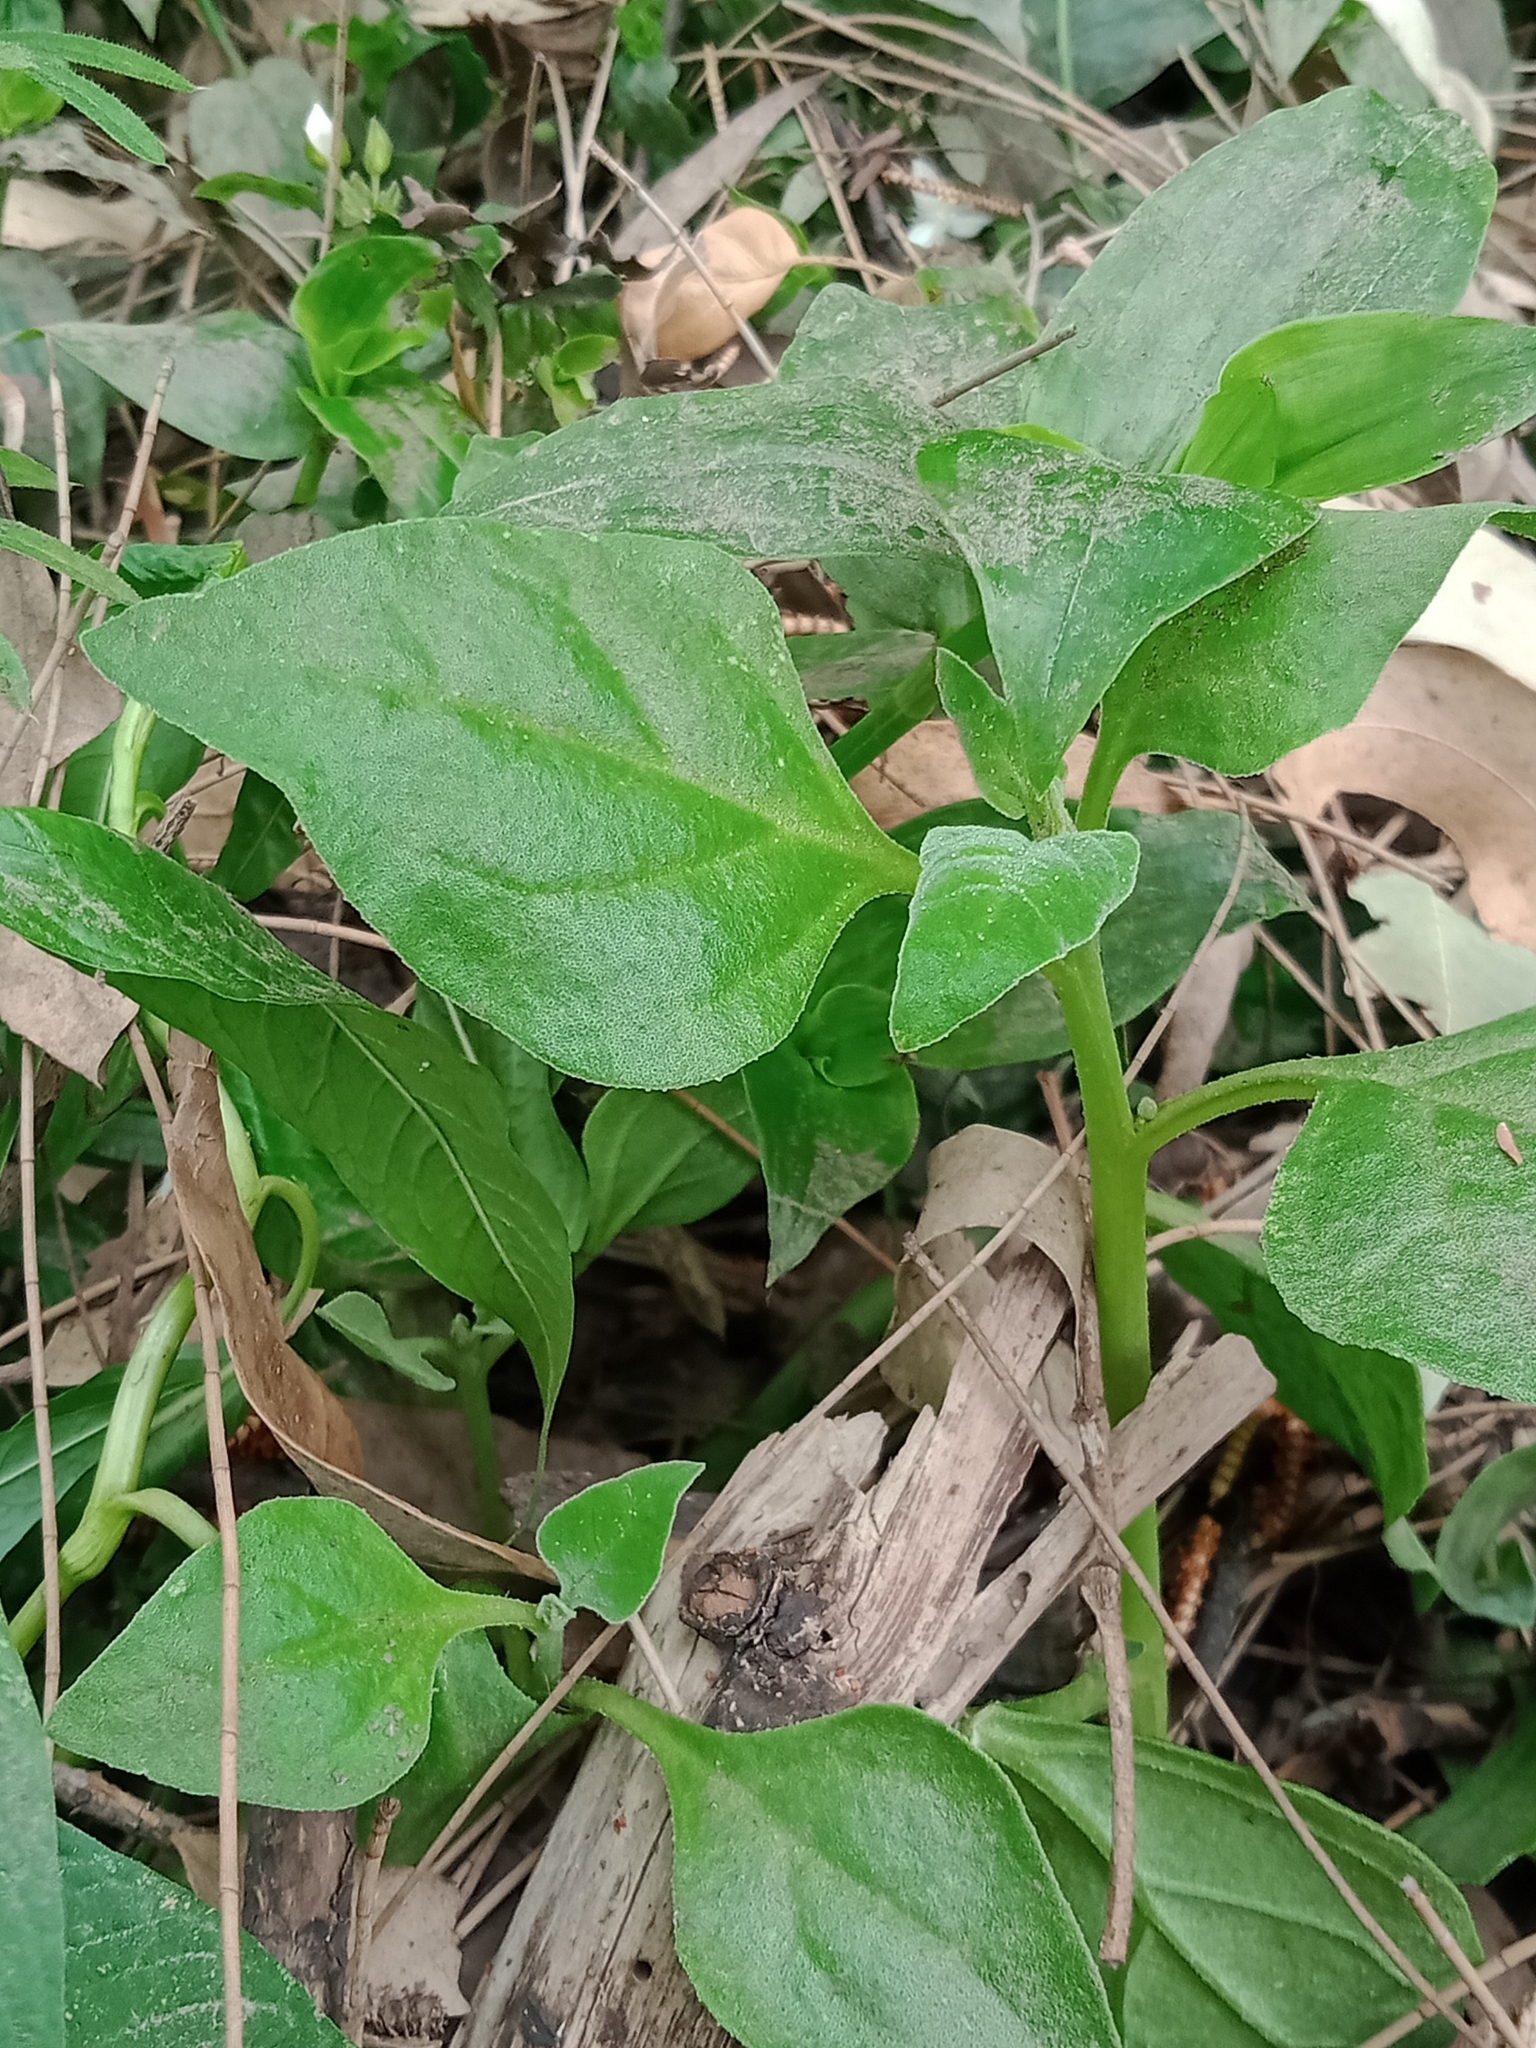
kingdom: Plantae
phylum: Tracheophyta
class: Magnoliopsida
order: Caryophyllales
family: Aizoaceae
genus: Tetragonia
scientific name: Tetragonia tetragonoides
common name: New zealand-spinach
